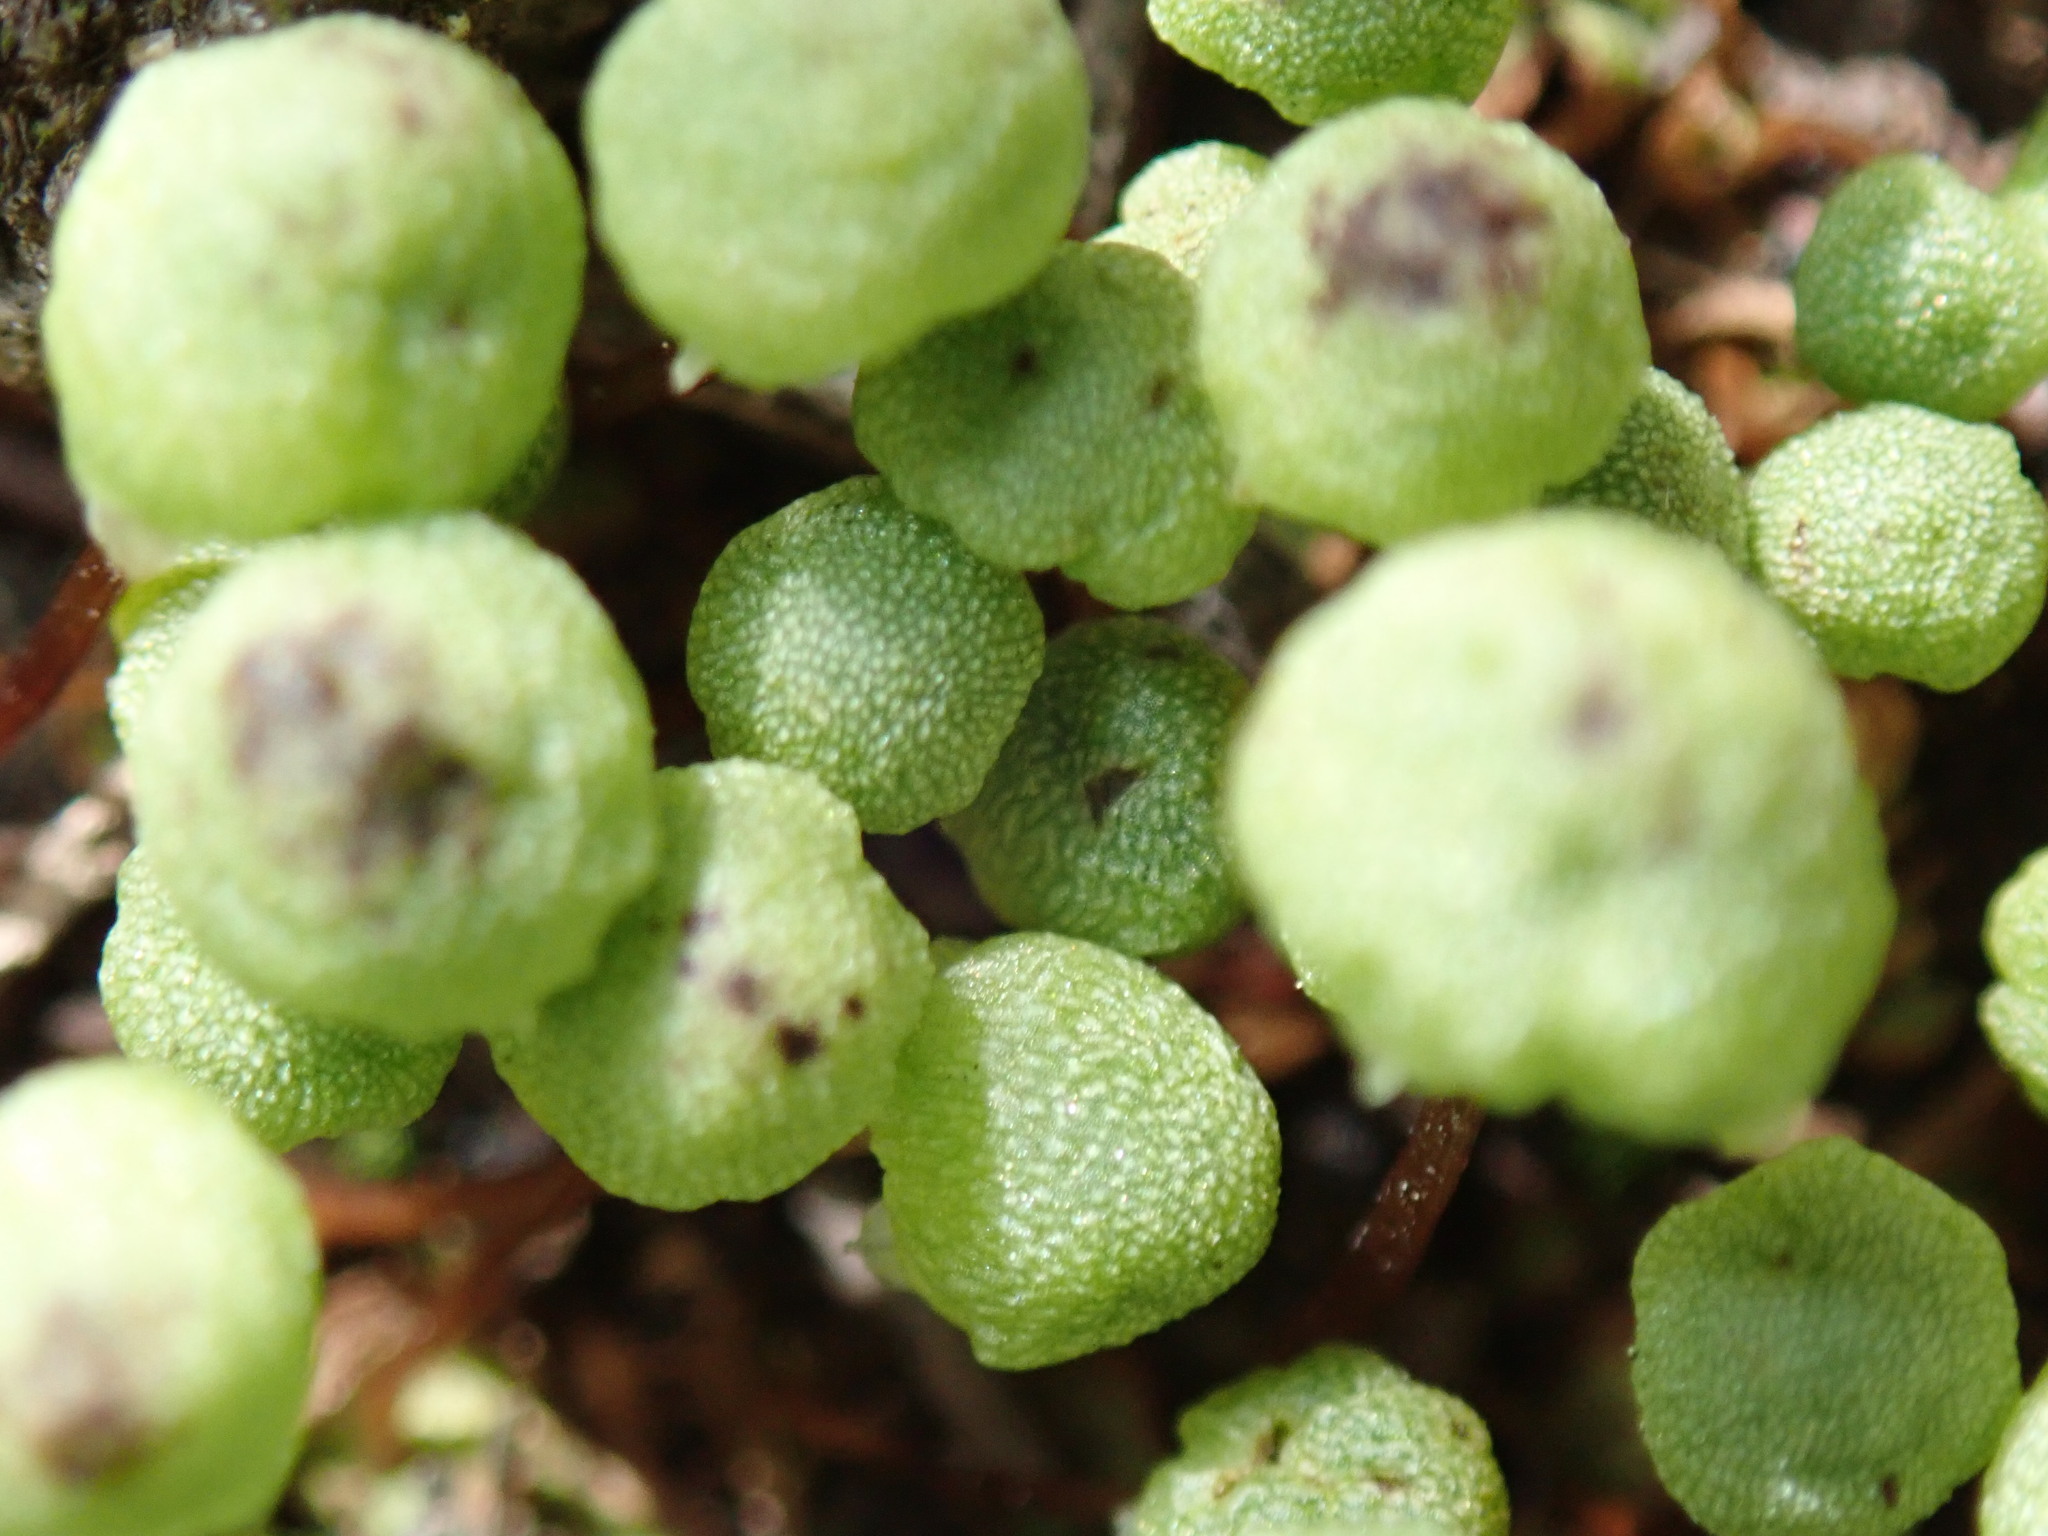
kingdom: Plantae
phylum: Marchantiophyta
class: Marchantiopsida
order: Marchantiales
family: Aytoniaceae
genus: Asterella
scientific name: Asterella palmeri
